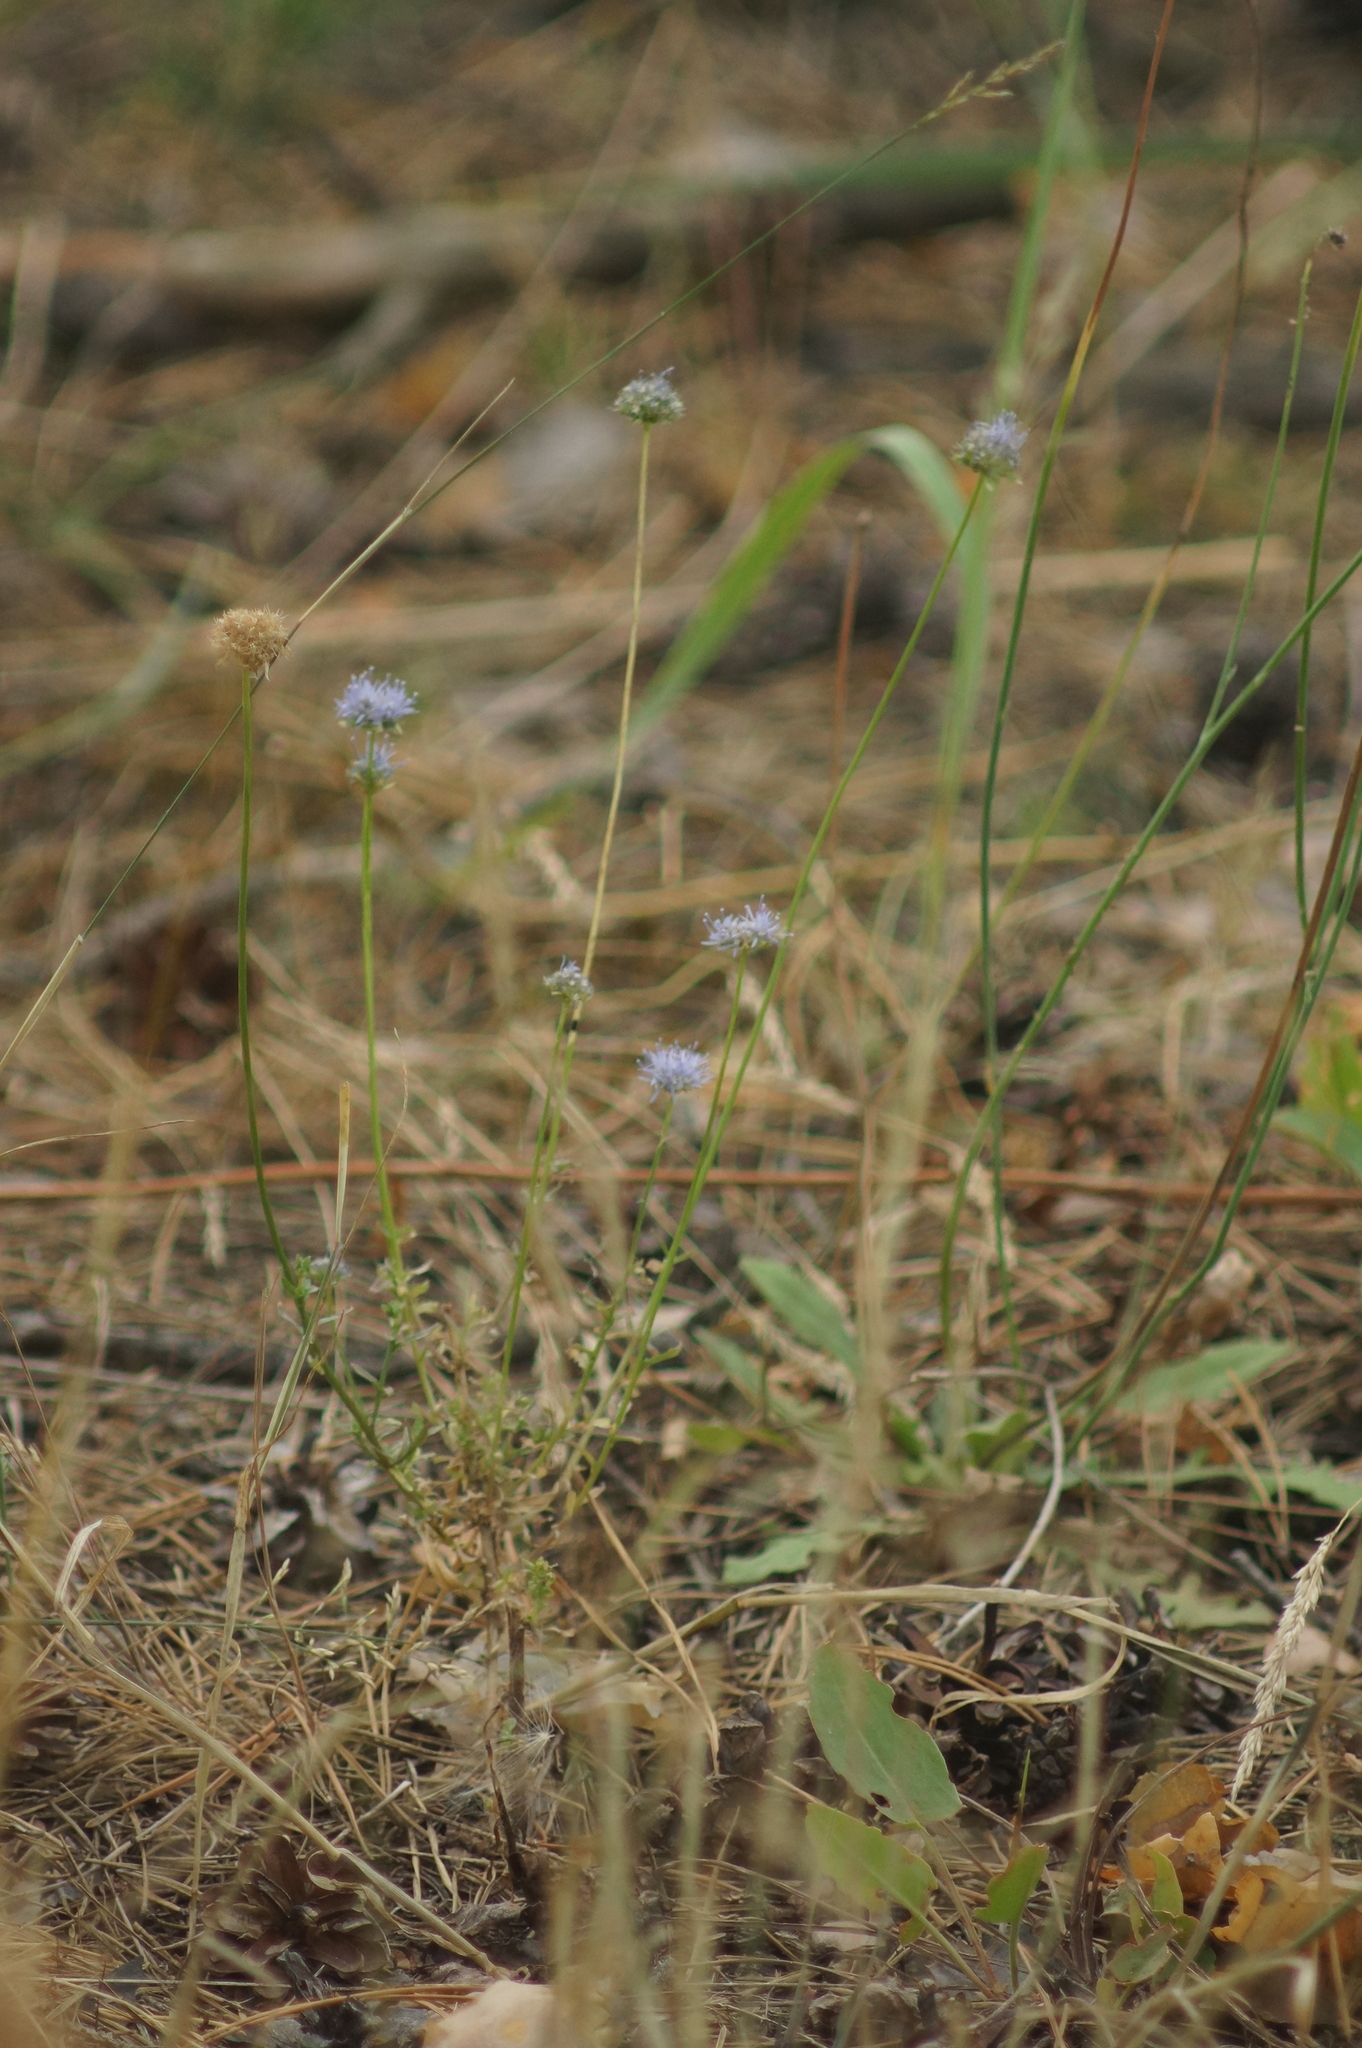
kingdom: Plantae
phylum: Tracheophyta
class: Magnoliopsida
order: Asterales
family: Campanulaceae
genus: Jasione
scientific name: Jasione montana
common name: Sheep's-bit
